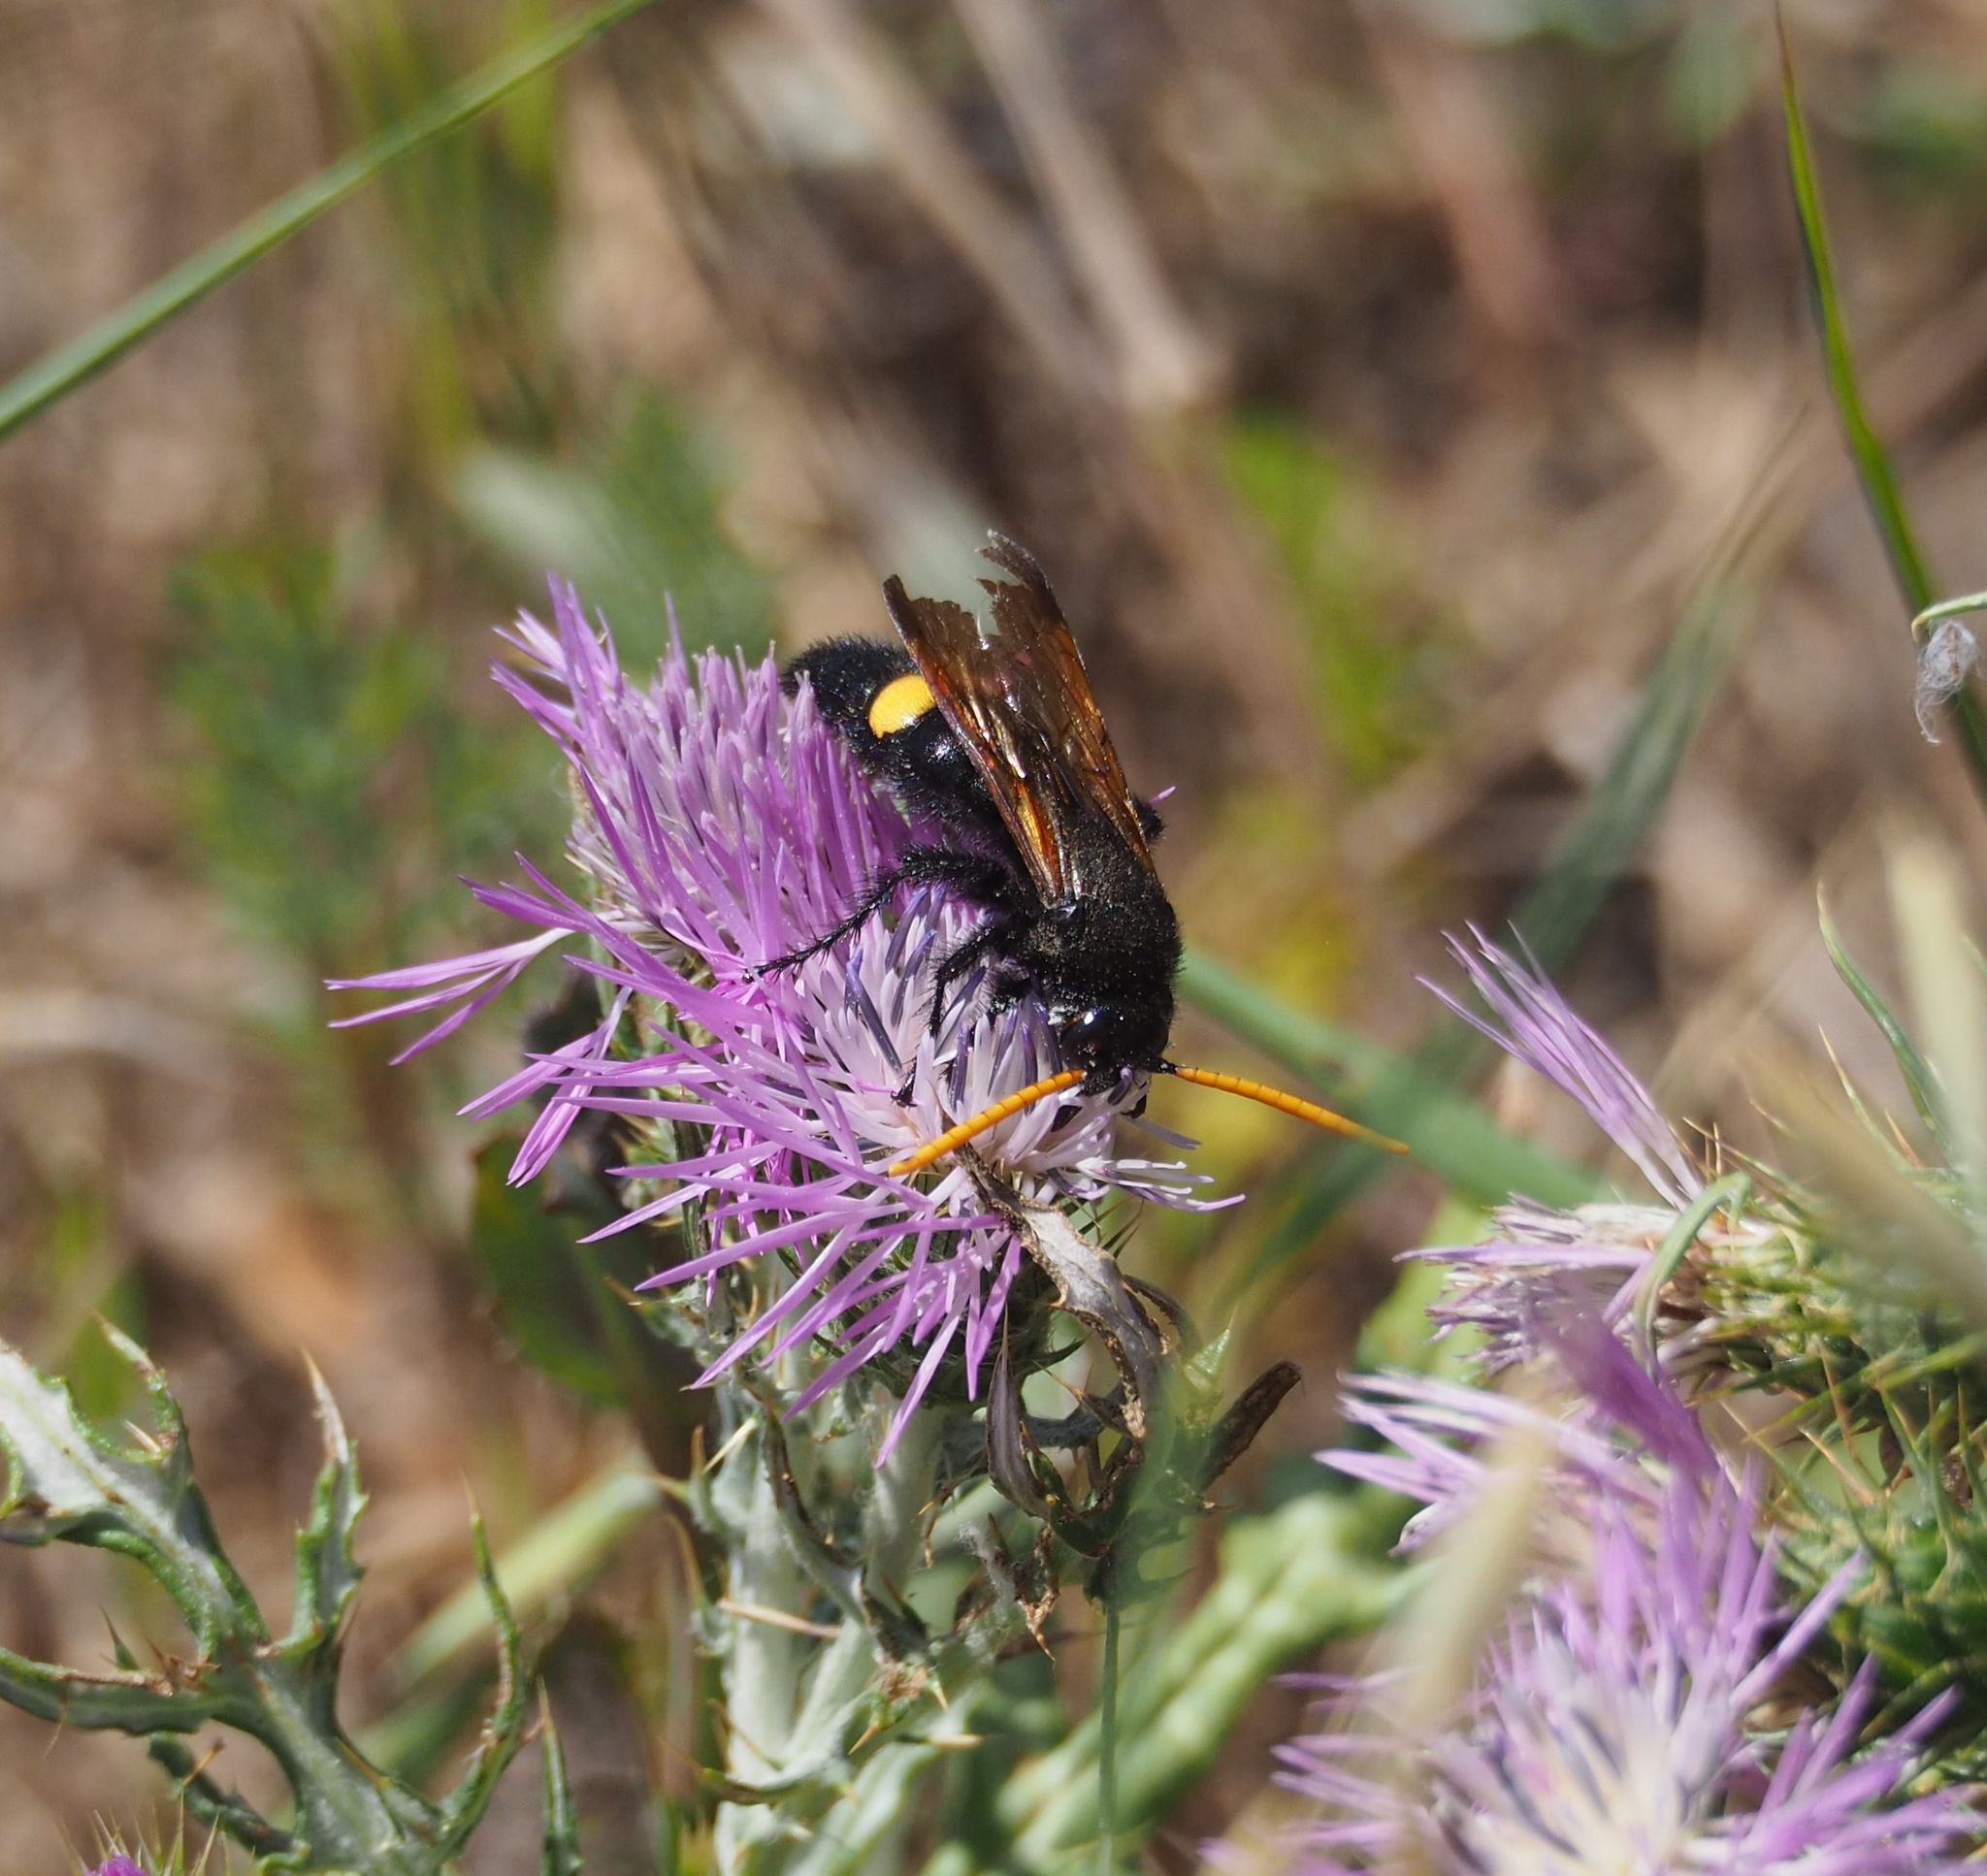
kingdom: Animalia
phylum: Arthropoda
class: Insecta
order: Hymenoptera
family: Scoliidae
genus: Megascolia
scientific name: Megascolia bidens
